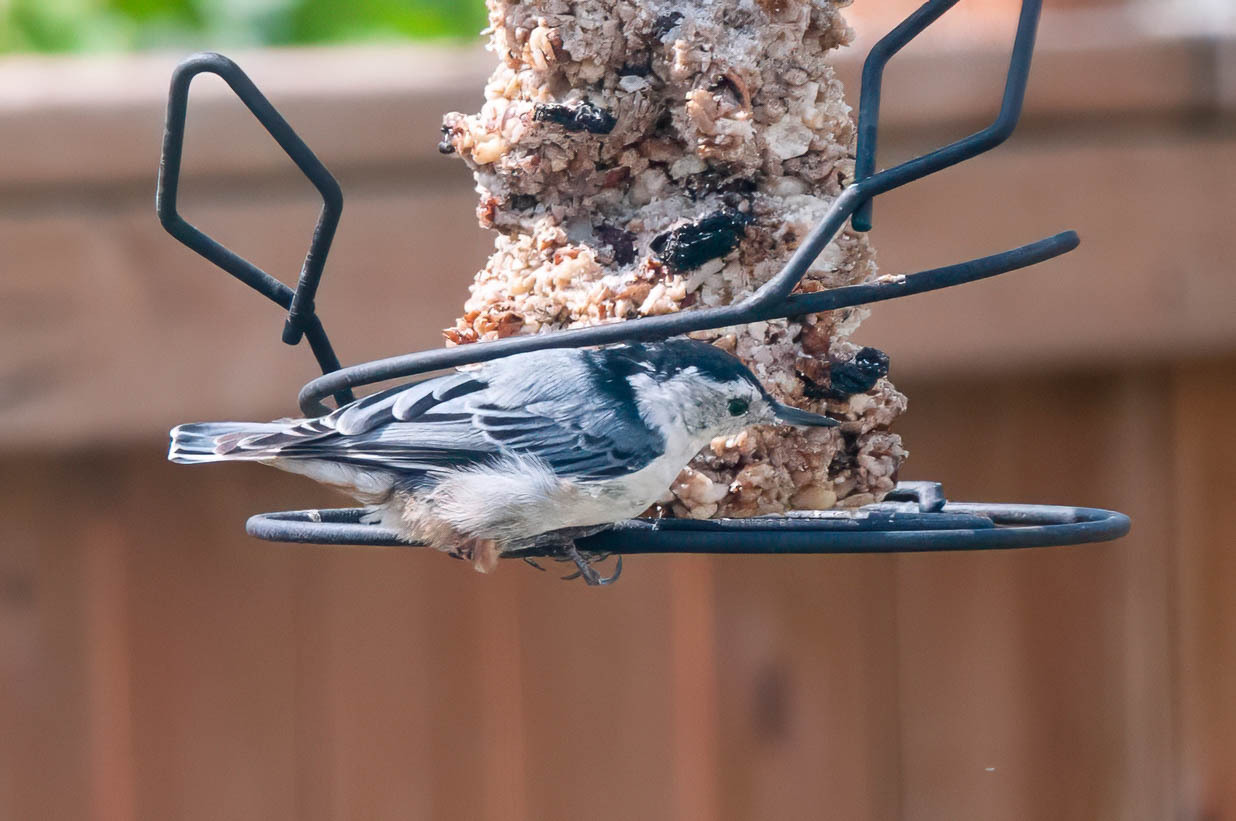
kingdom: Animalia
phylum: Chordata
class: Aves
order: Passeriformes
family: Sittidae
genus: Sitta
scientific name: Sitta carolinensis
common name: White-breasted nuthatch
